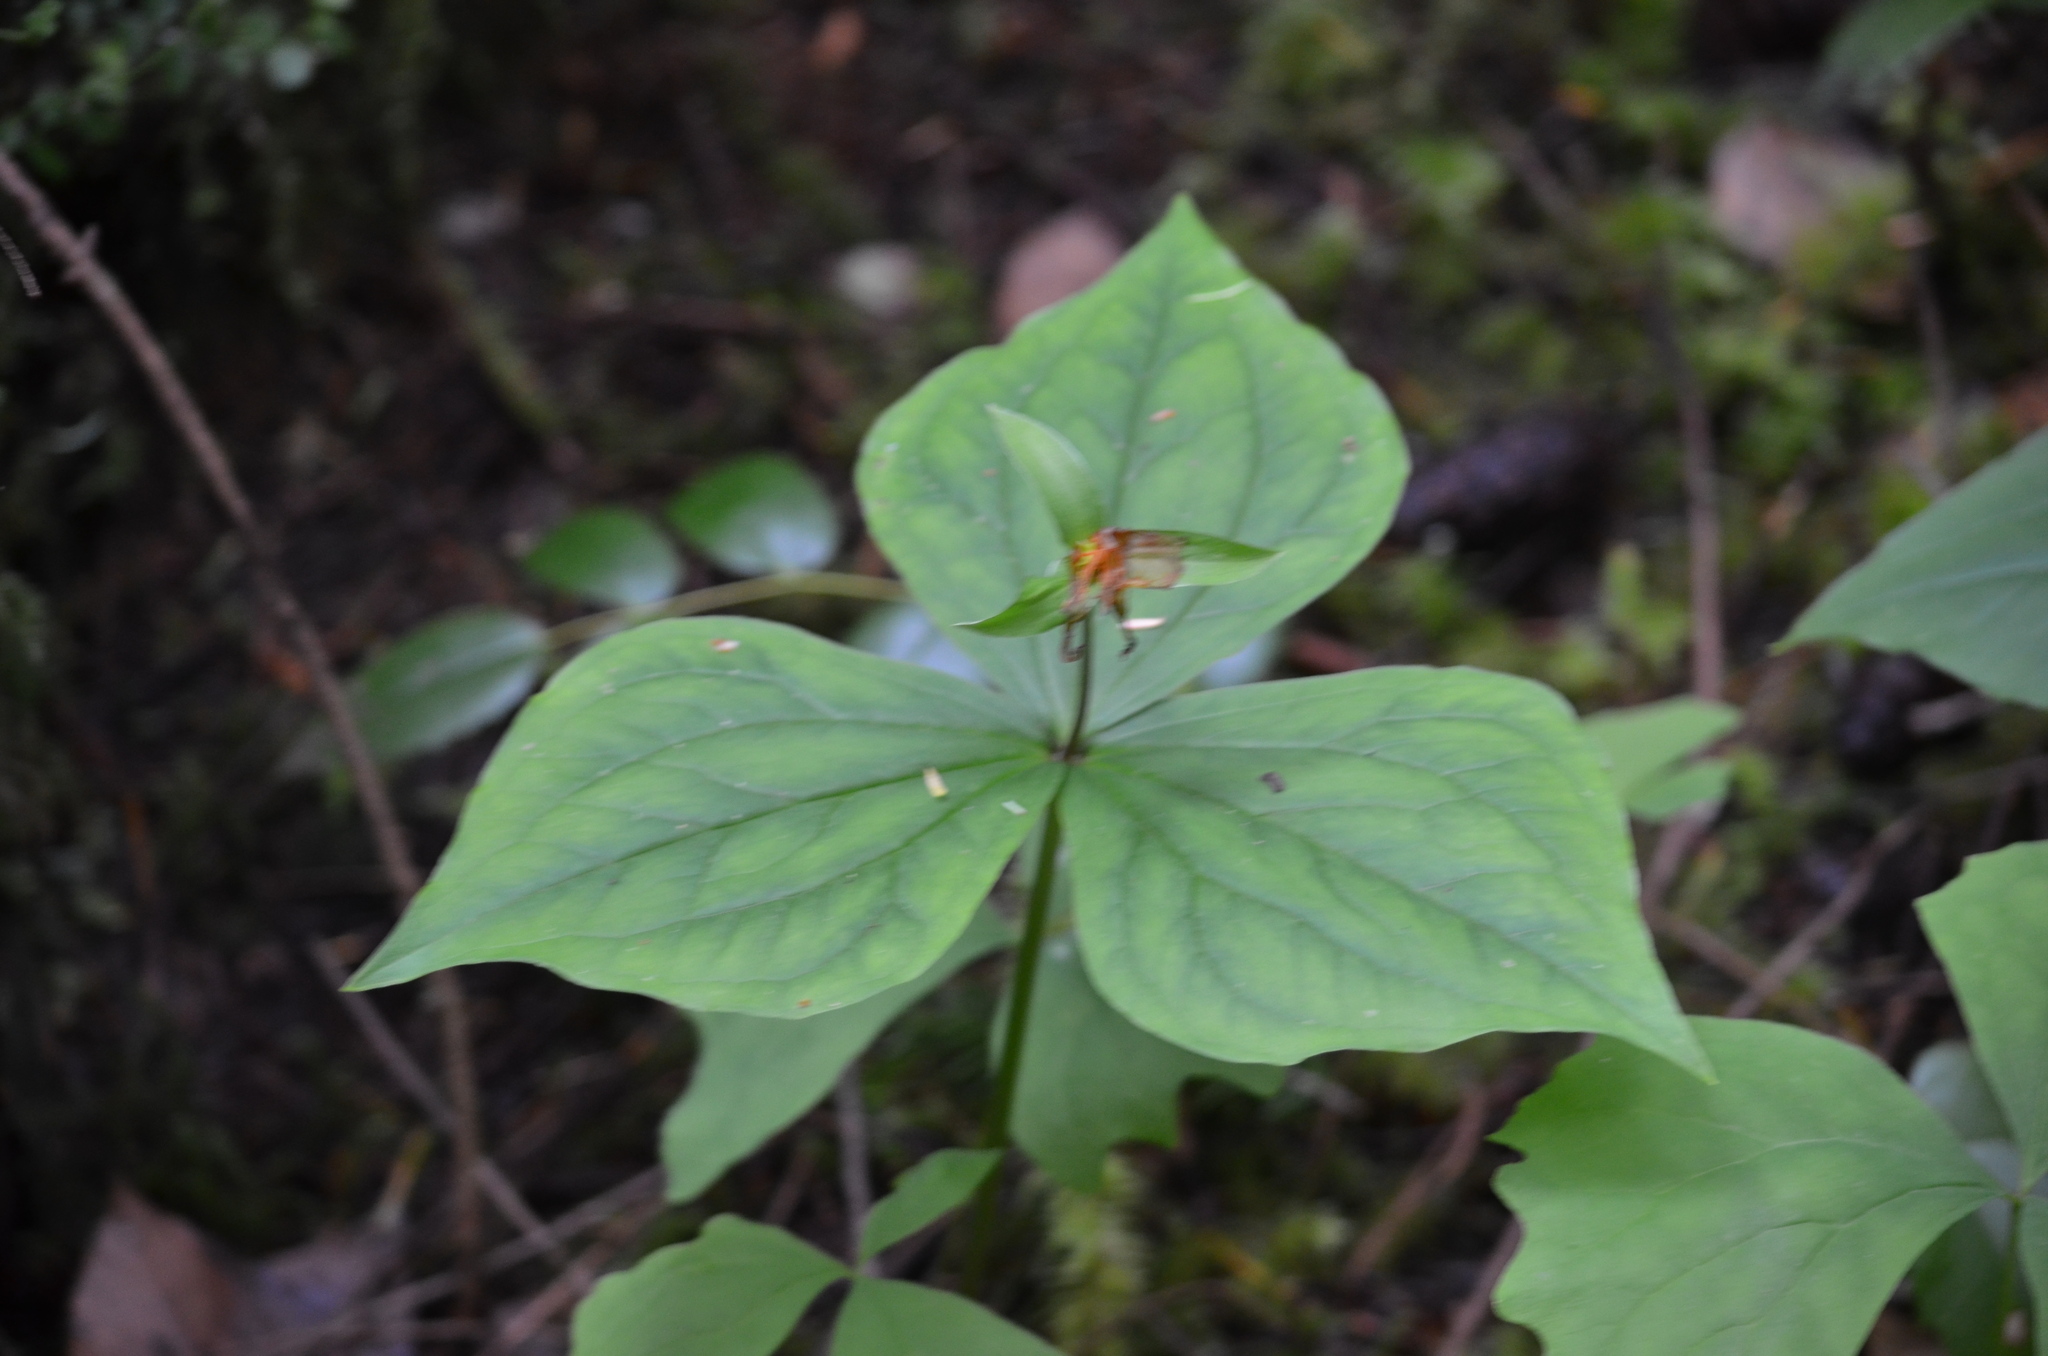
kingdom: Plantae
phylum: Tracheophyta
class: Liliopsida
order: Liliales
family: Melanthiaceae
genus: Trillium
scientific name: Trillium ovatum
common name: Pacific trillium
